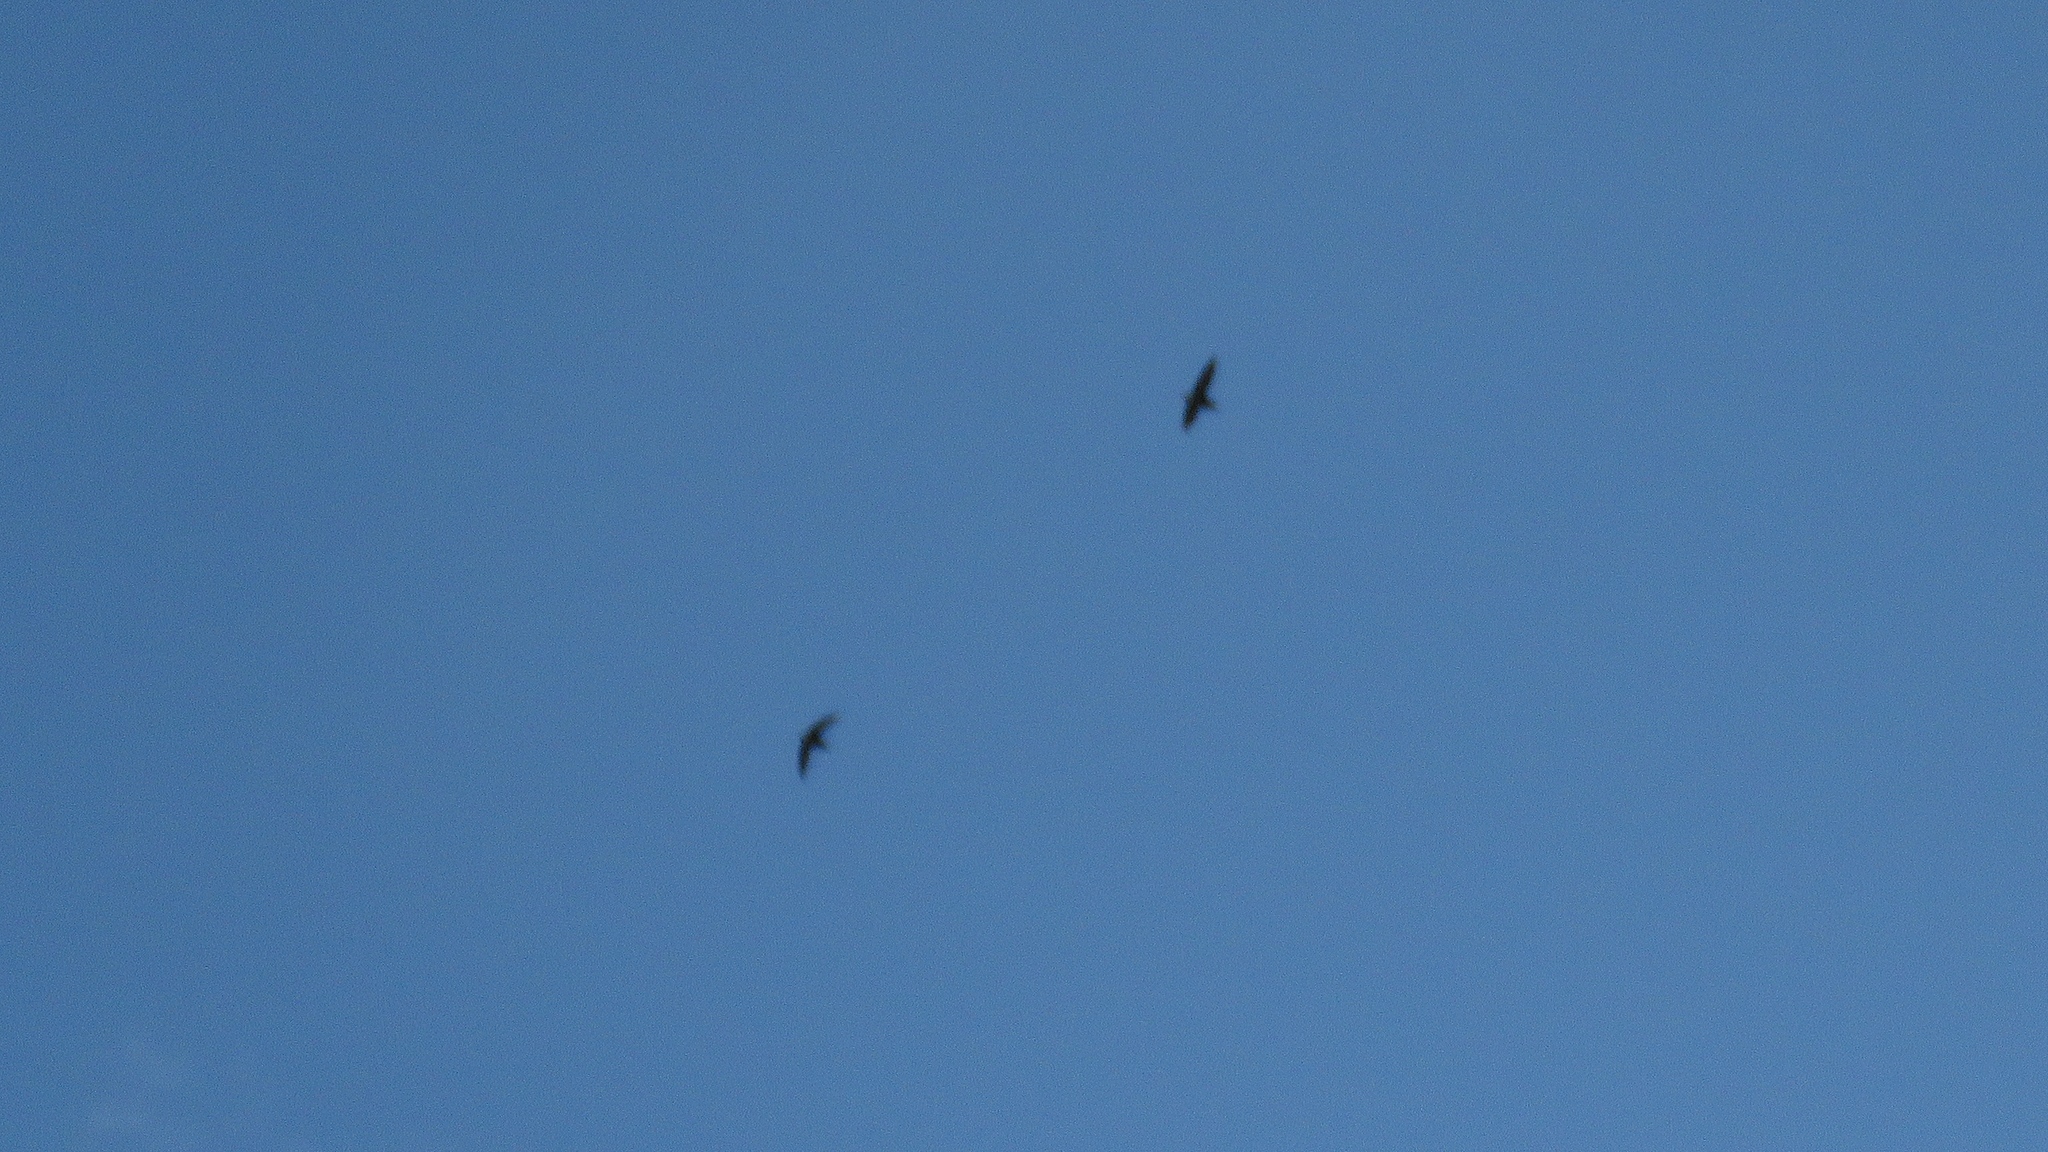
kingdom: Animalia
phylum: Chordata
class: Aves
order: Apodiformes
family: Apodidae
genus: Chaetura
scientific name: Chaetura pelagica
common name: Chimney swift
